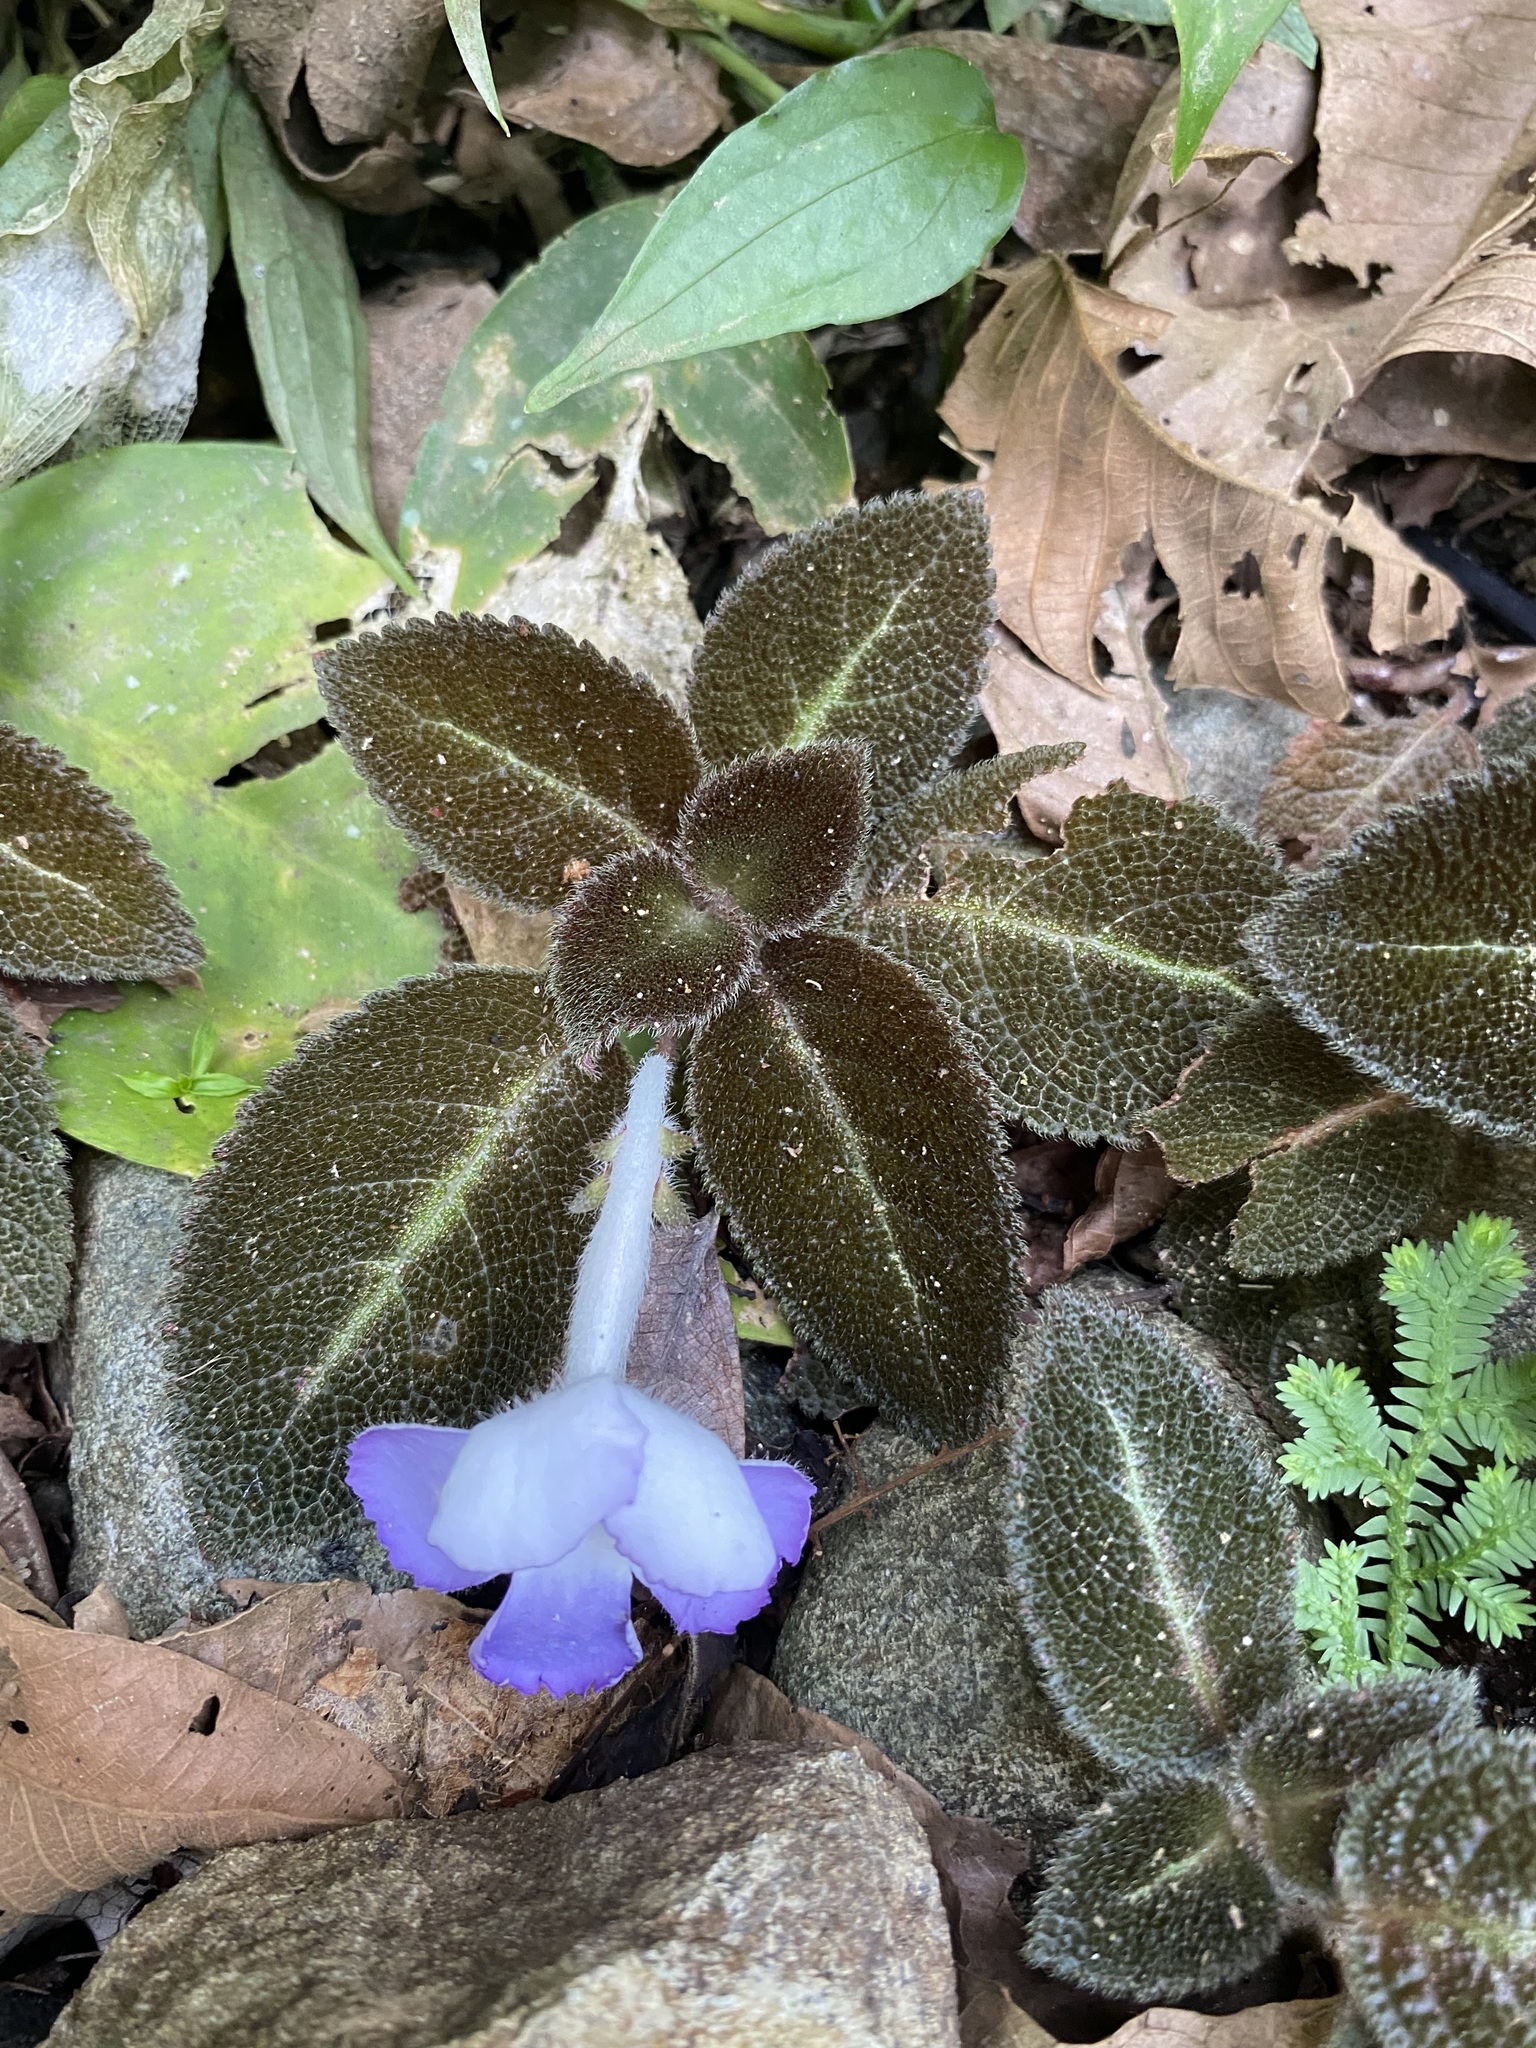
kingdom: Plantae
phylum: Tracheophyta
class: Magnoliopsida
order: Lamiales
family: Gesneriaceae
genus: Episcia
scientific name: Episcia lilacina
